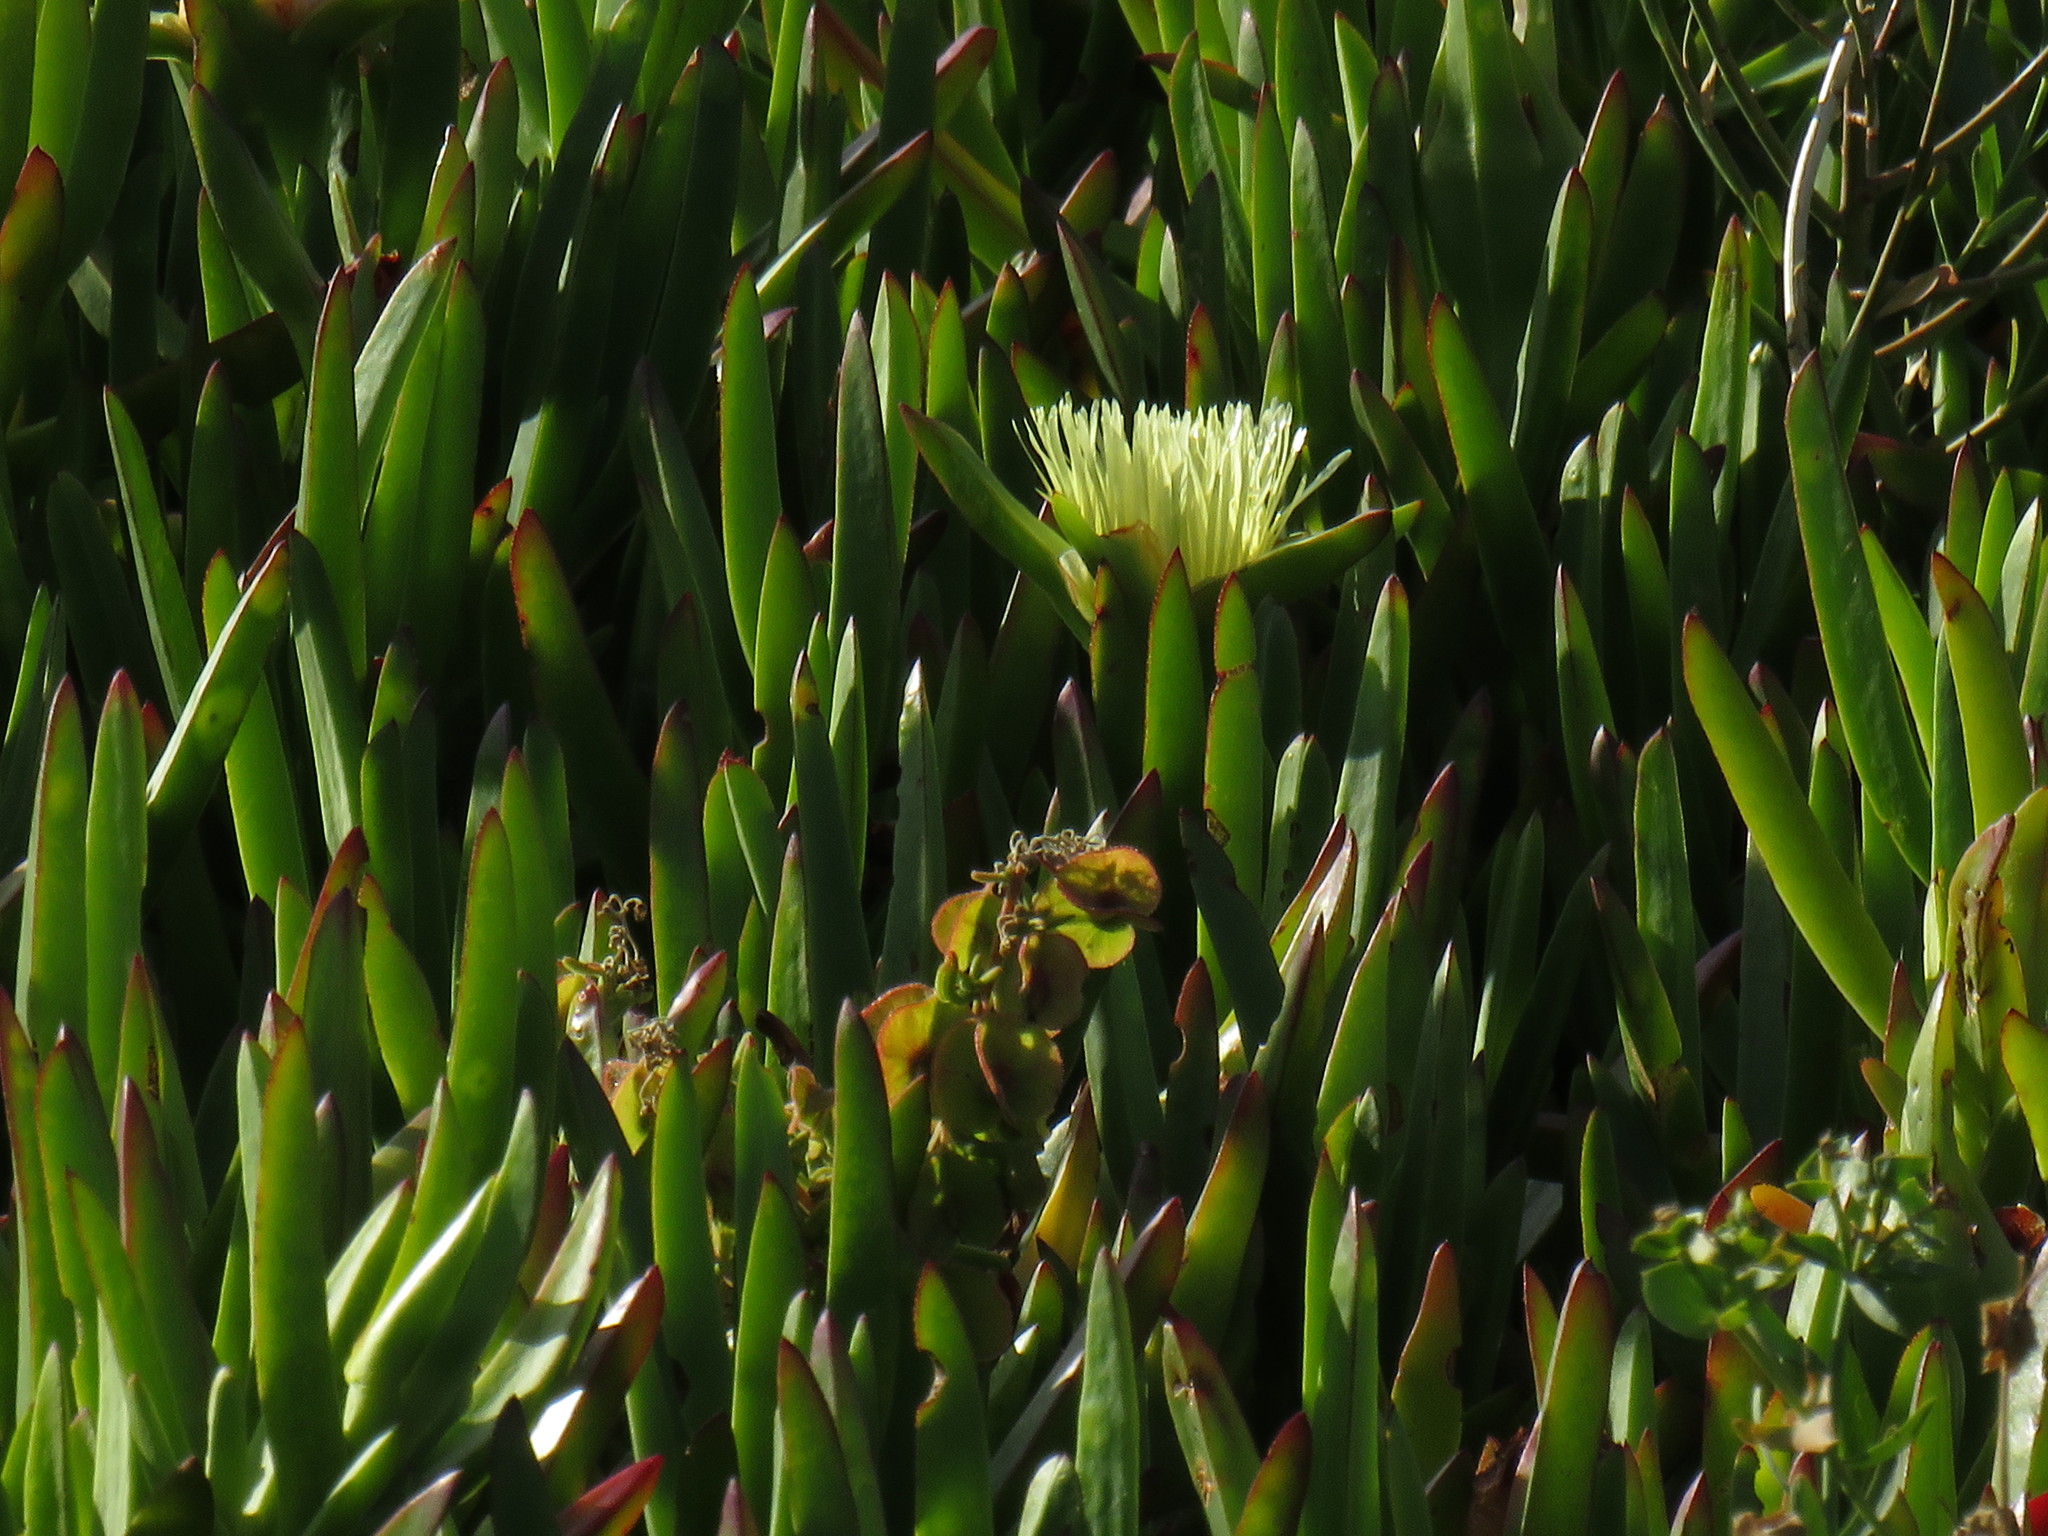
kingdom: Plantae
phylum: Tracheophyta
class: Magnoliopsida
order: Caryophyllales
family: Aizoaceae
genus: Carpobrotus
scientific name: Carpobrotus edulis
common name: Hottentot-fig
